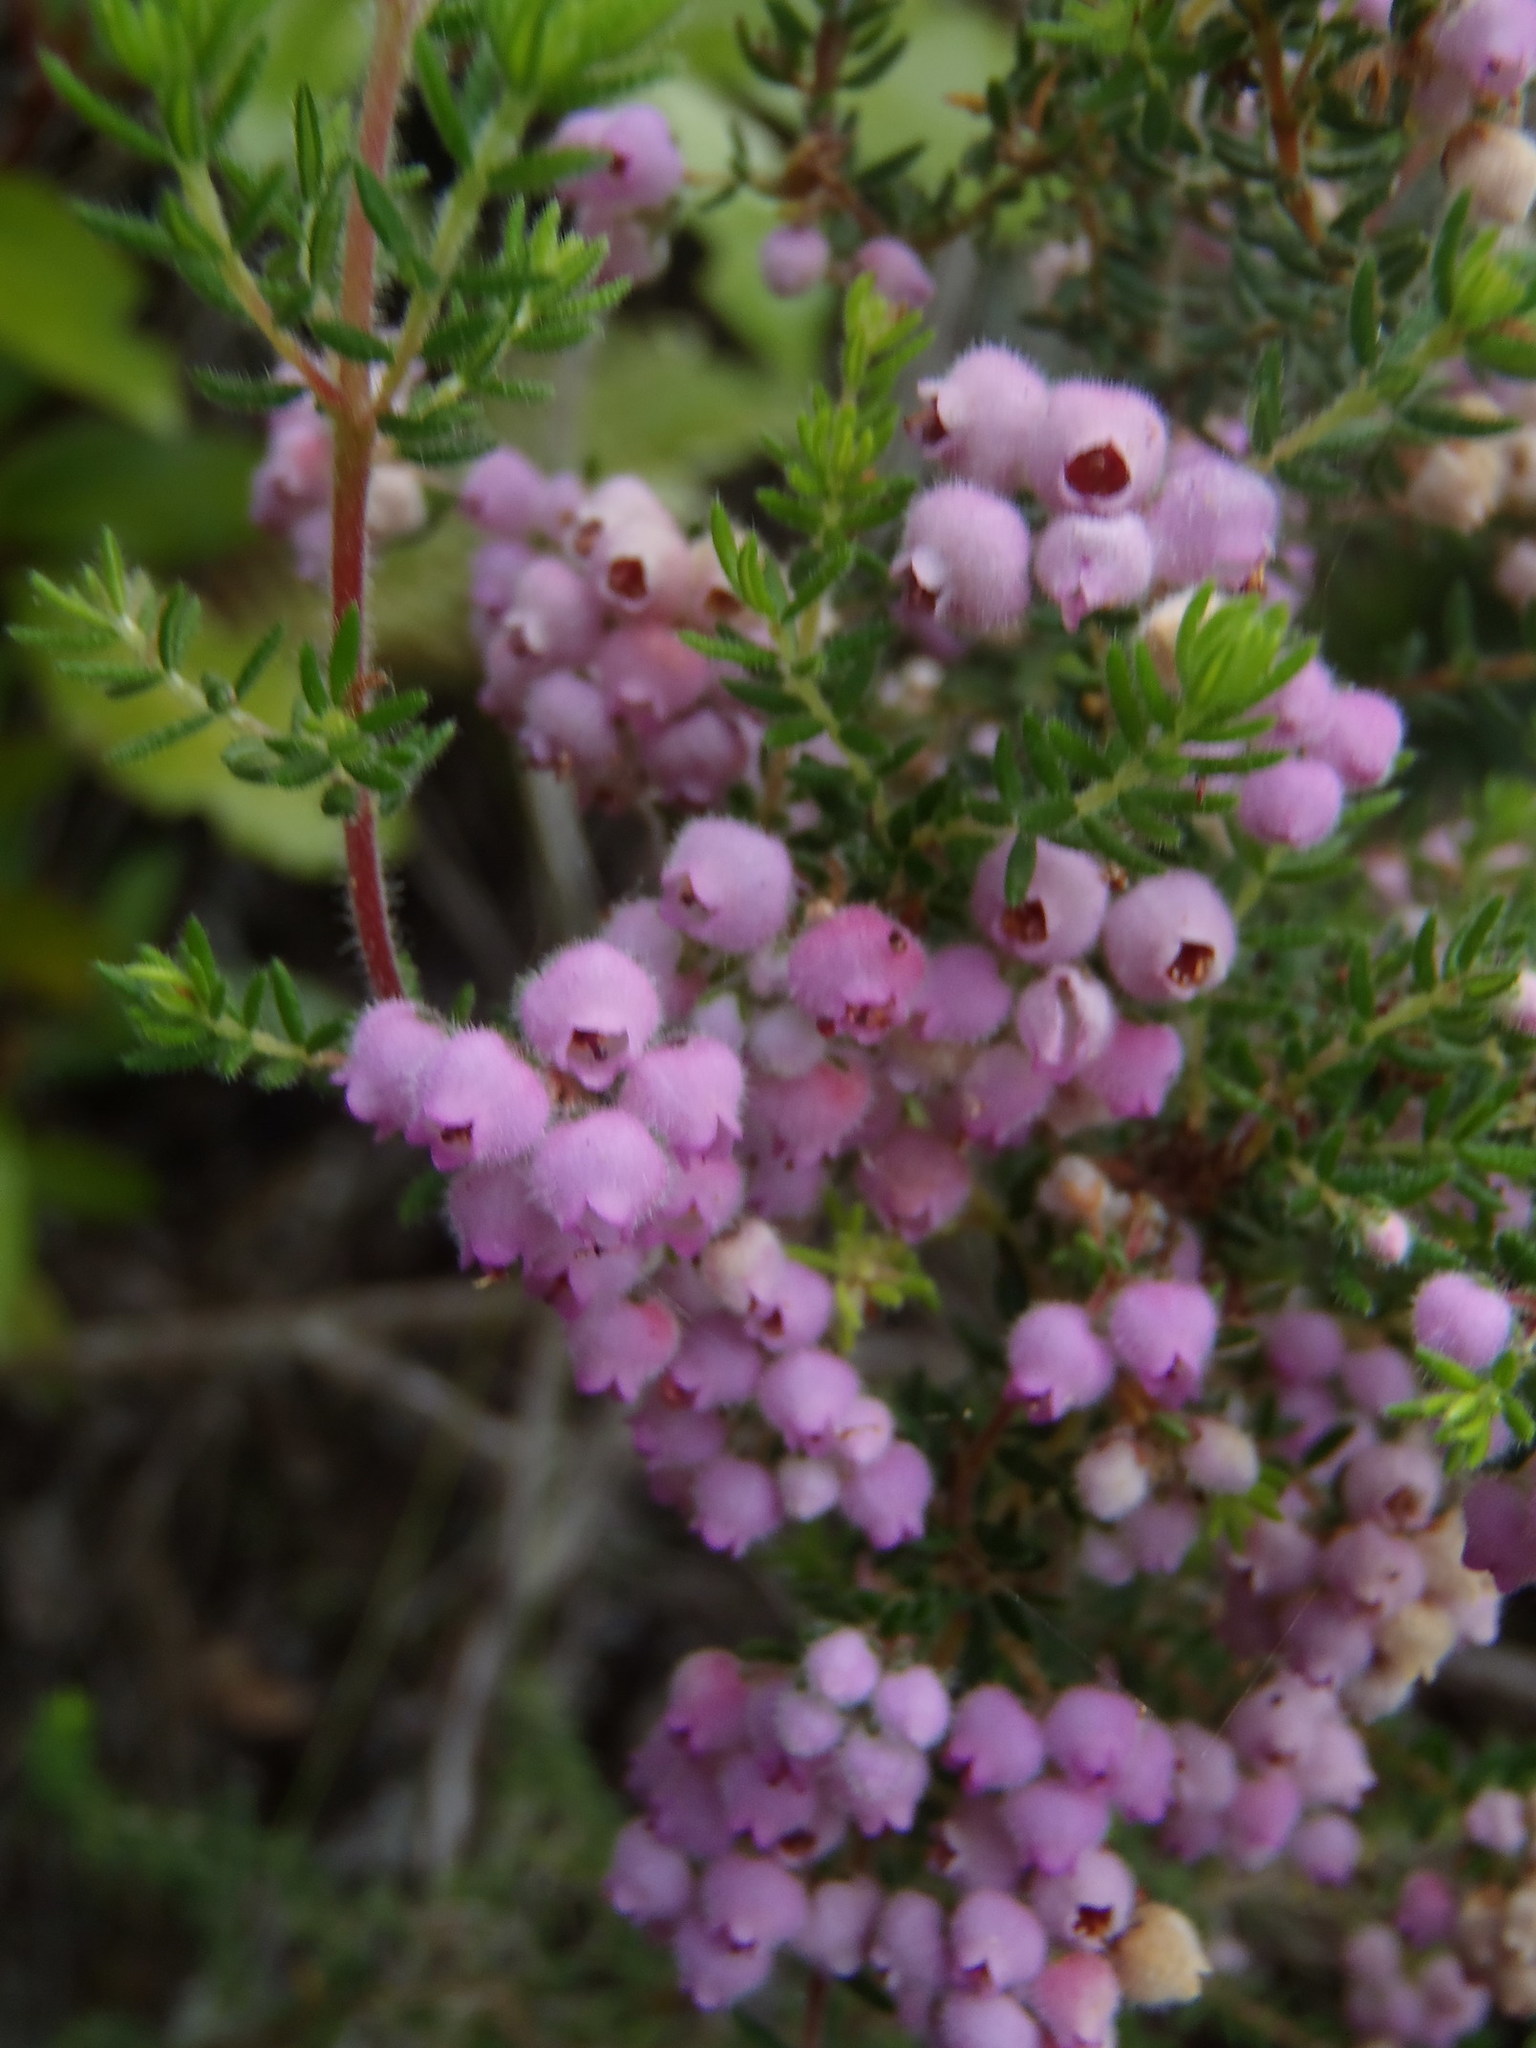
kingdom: Plantae
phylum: Tracheophyta
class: Magnoliopsida
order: Ericales
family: Ericaceae
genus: Erica
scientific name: Erica hirtiflora
